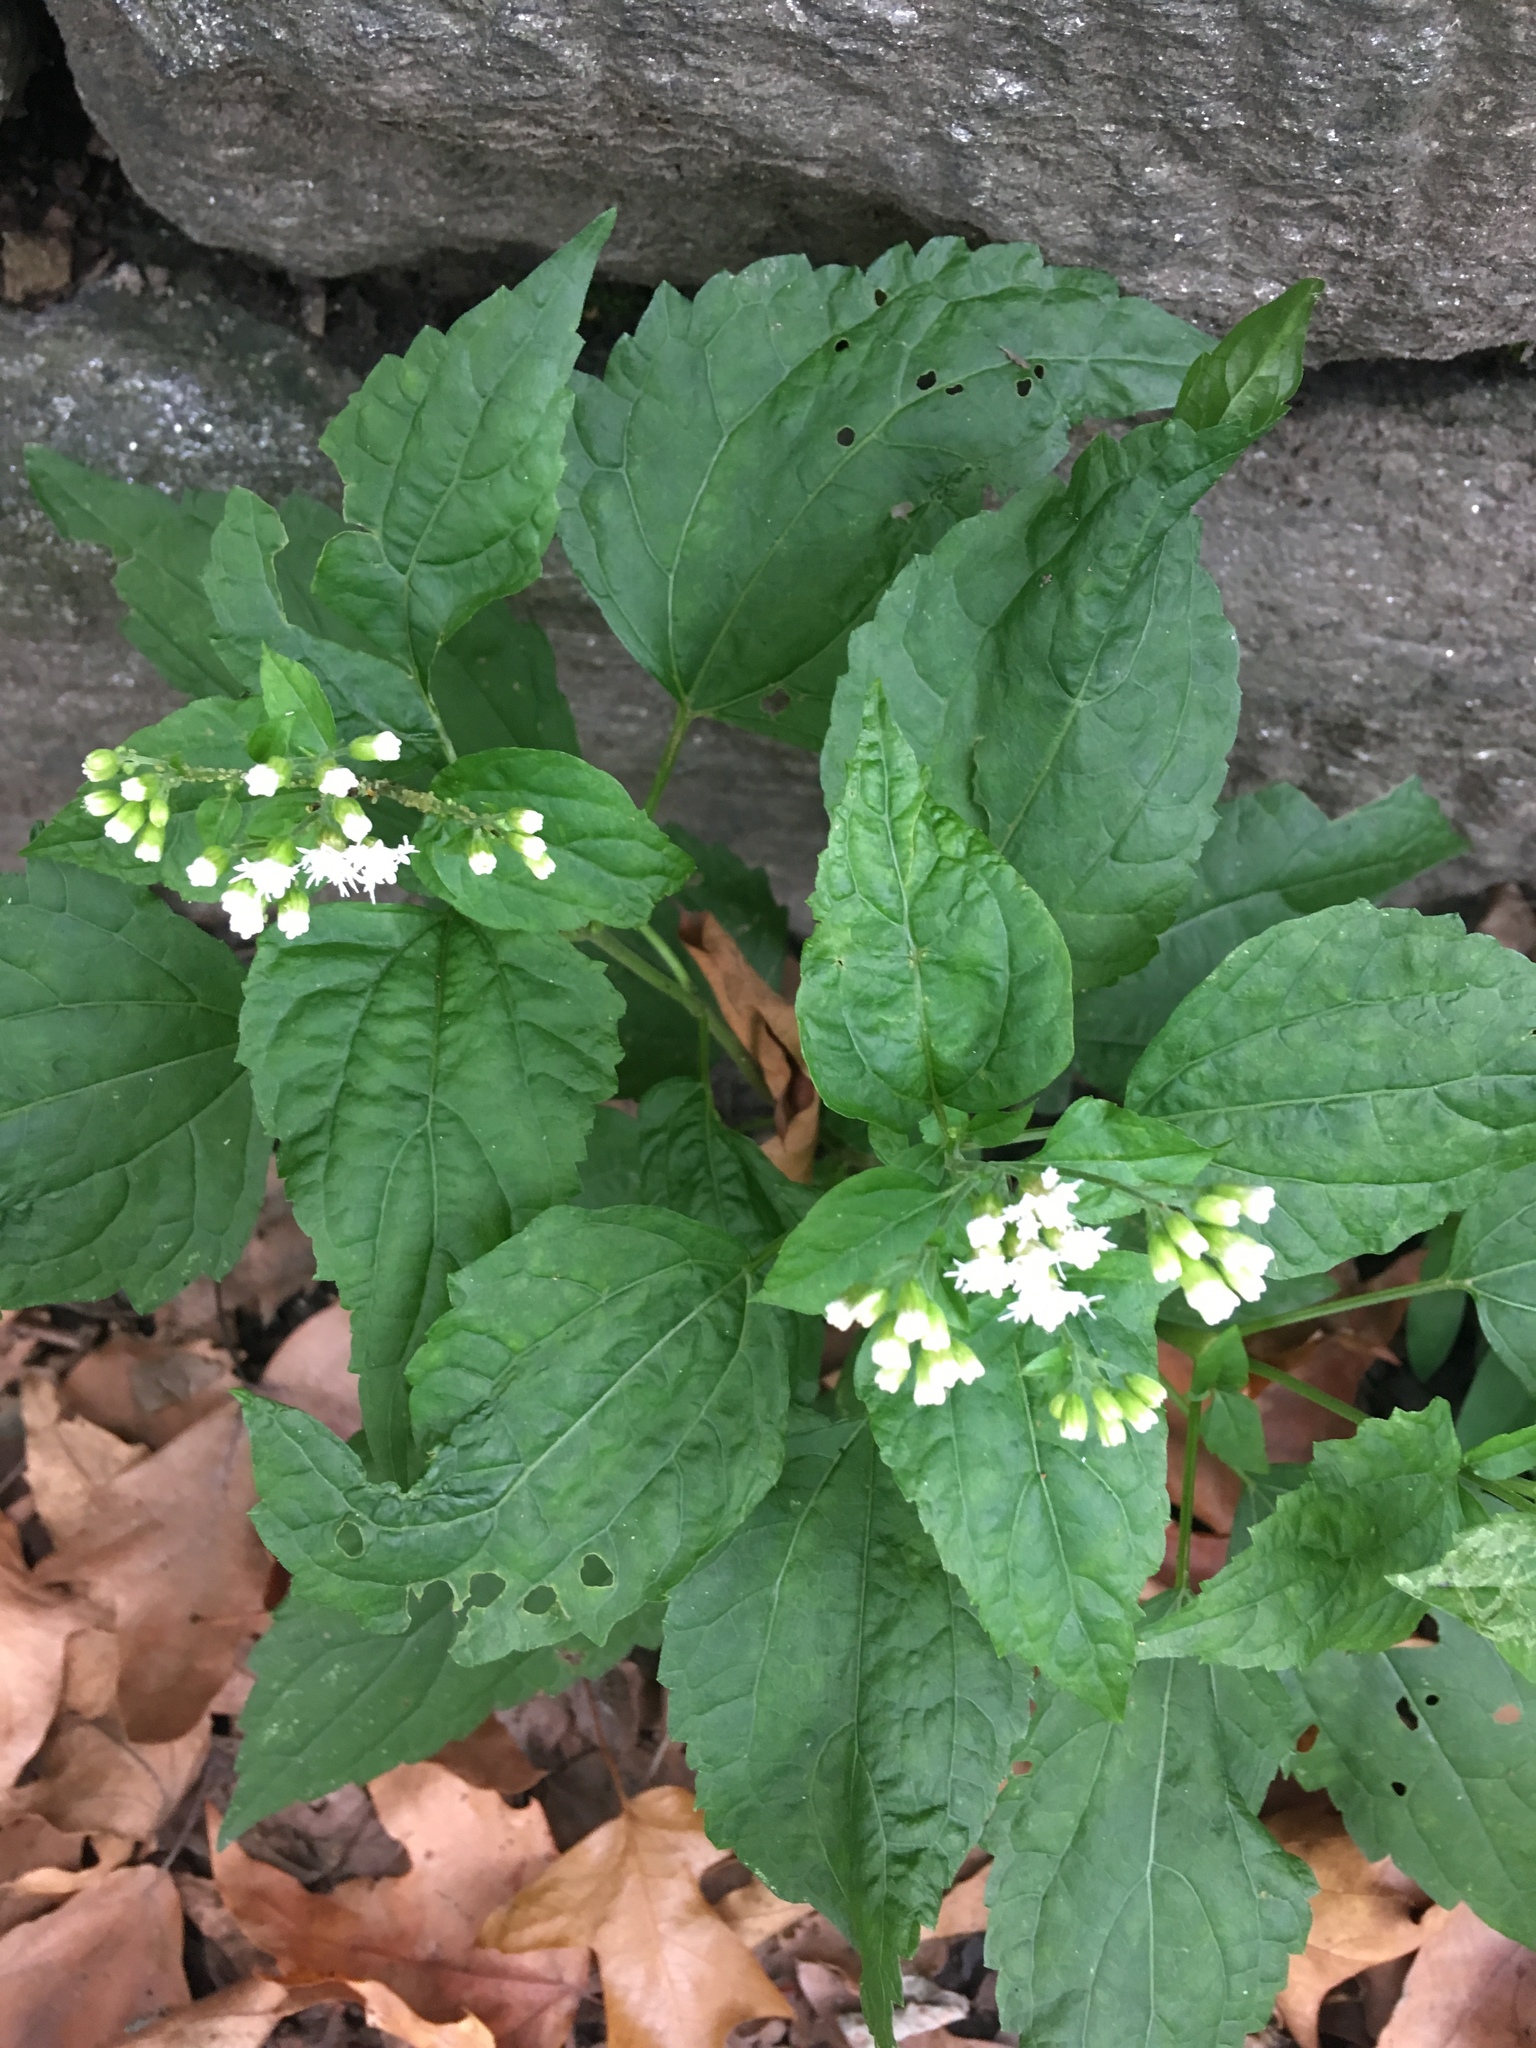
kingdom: Plantae
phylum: Tracheophyta
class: Magnoliopsida
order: Asterales
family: Asteraceae
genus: Ageratina
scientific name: Ageratina altissima
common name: White snakeroot
